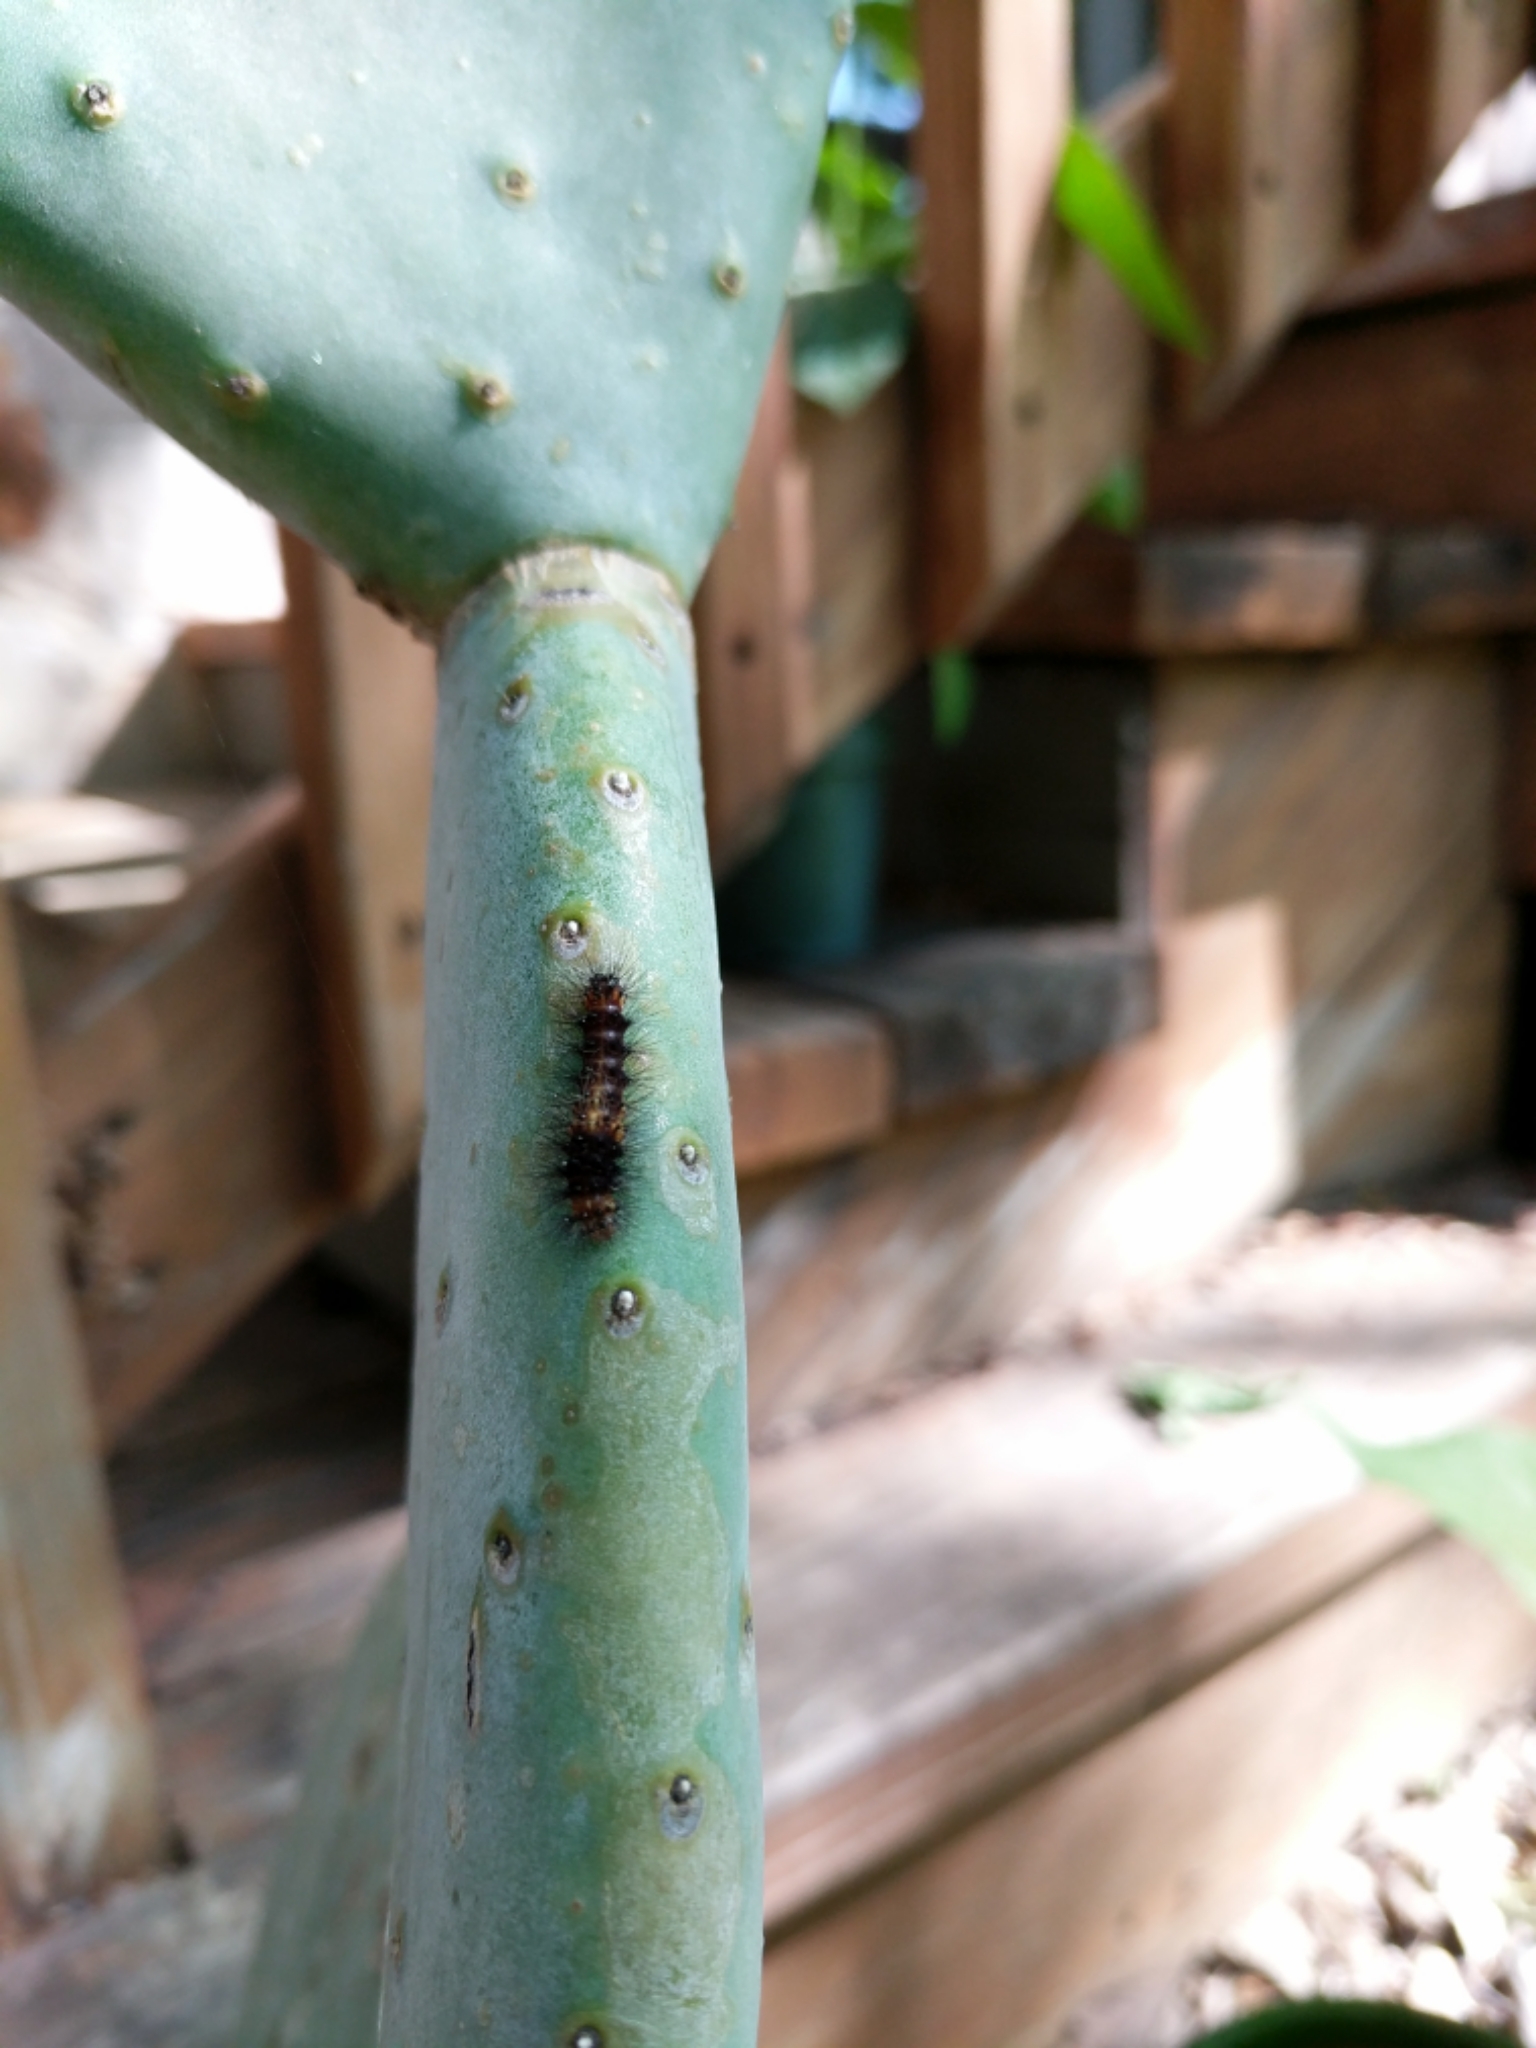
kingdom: Animalia
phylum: Arthropoda
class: Insecta
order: Lepidoptera
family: Erebidae
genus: Hypercompe
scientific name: Hypercompe scribonia
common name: Giant leopard moth
